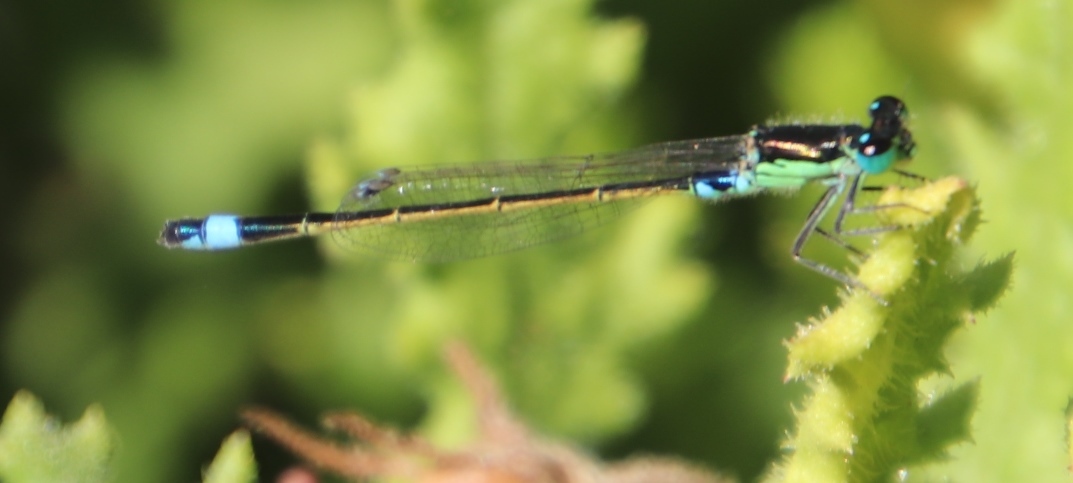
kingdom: Animalia
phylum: Arthropoda
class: Insecta
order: Odonata
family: Coenagrionidae
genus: Ischnura
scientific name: Ischnura senegalensis
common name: Tropical bluetail
